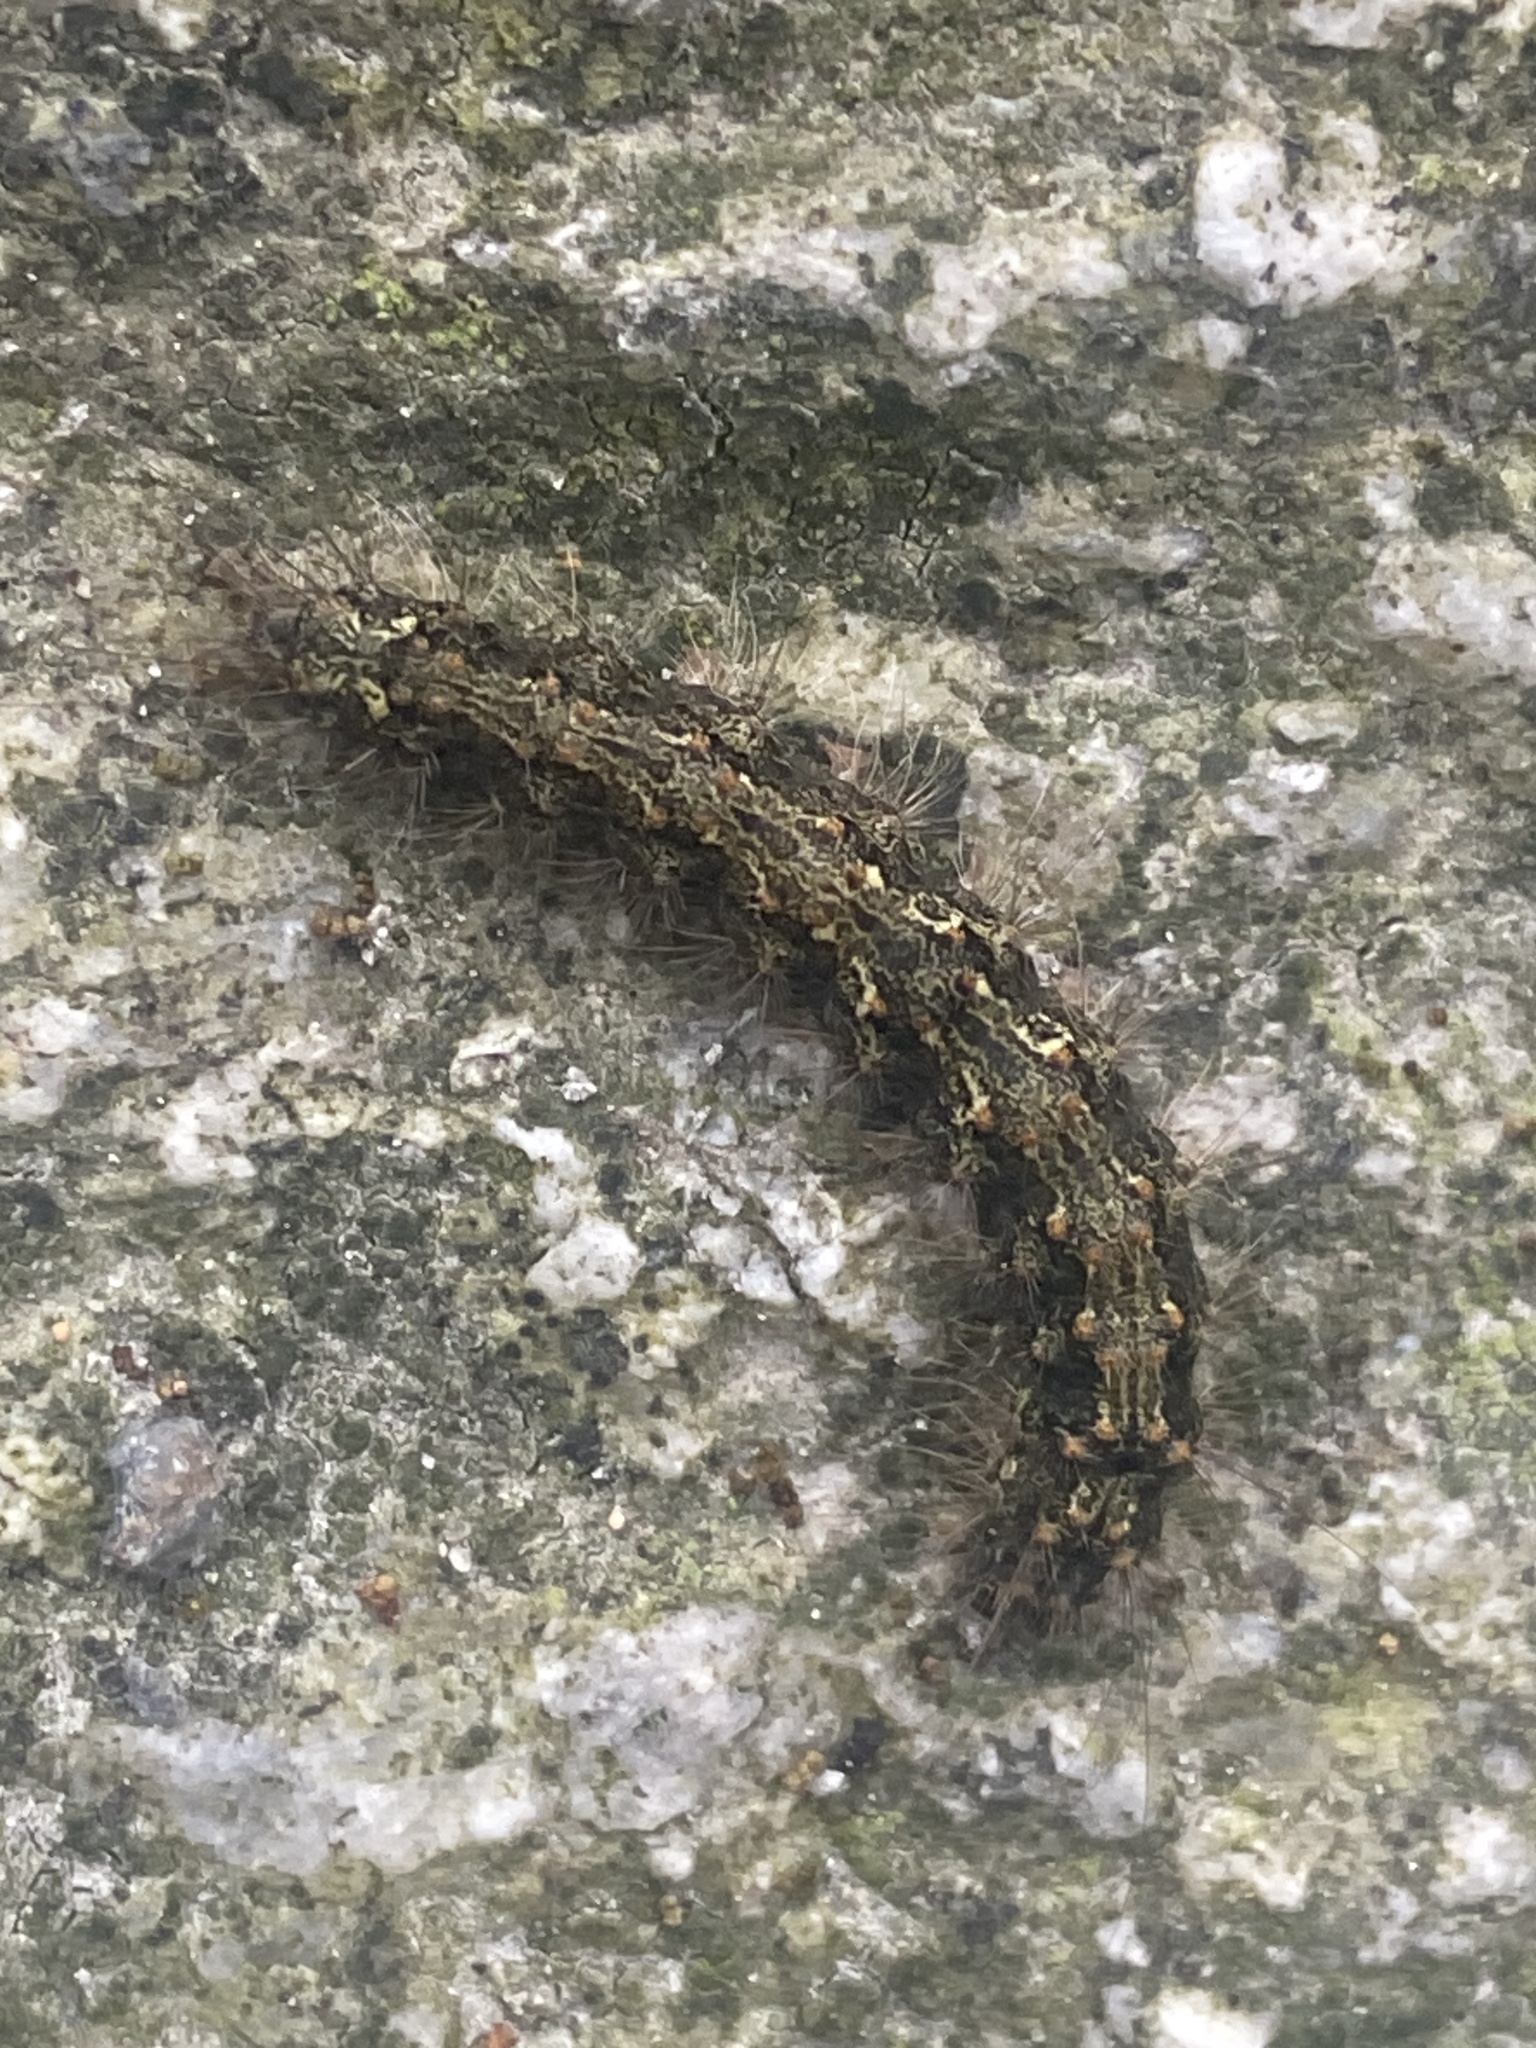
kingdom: Animalia
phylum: Arthropoda
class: Insecta
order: Lepidoptera
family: Erebidae
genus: Atolmis
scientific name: Atolmis rubricollis
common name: Red-necked footman
